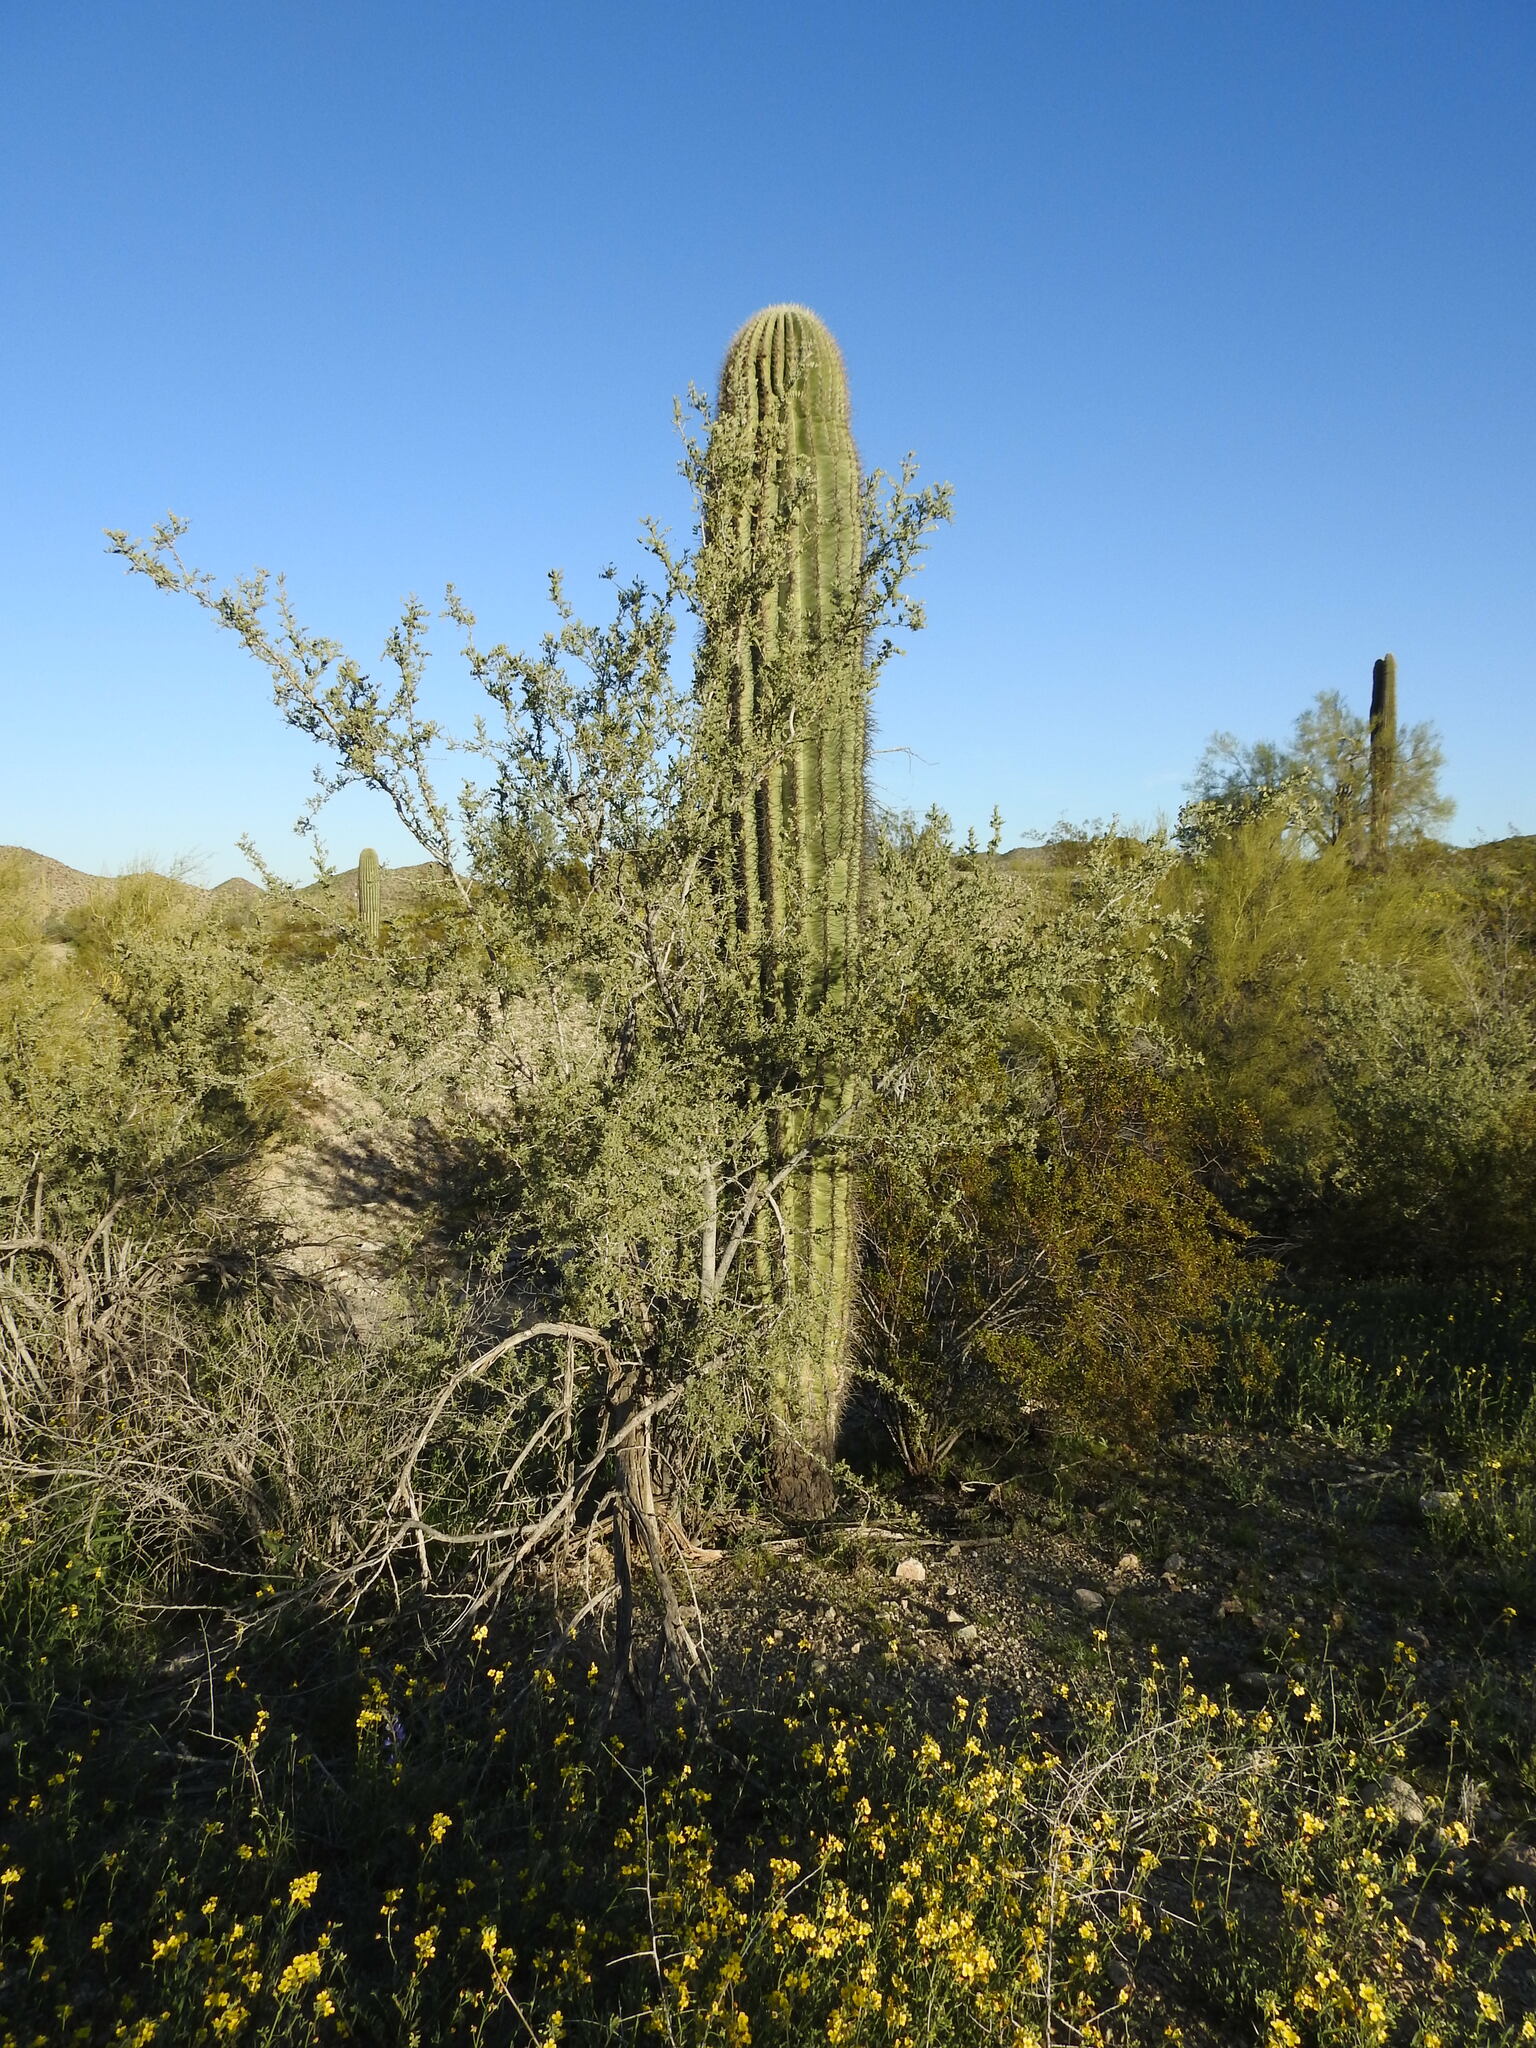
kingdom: Plantae
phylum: Tracheophyta
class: Magnoliopsida
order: Caryophyllales
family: Cactaceae
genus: Carnegiea
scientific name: Carnegiea gigantea
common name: Saguaro
